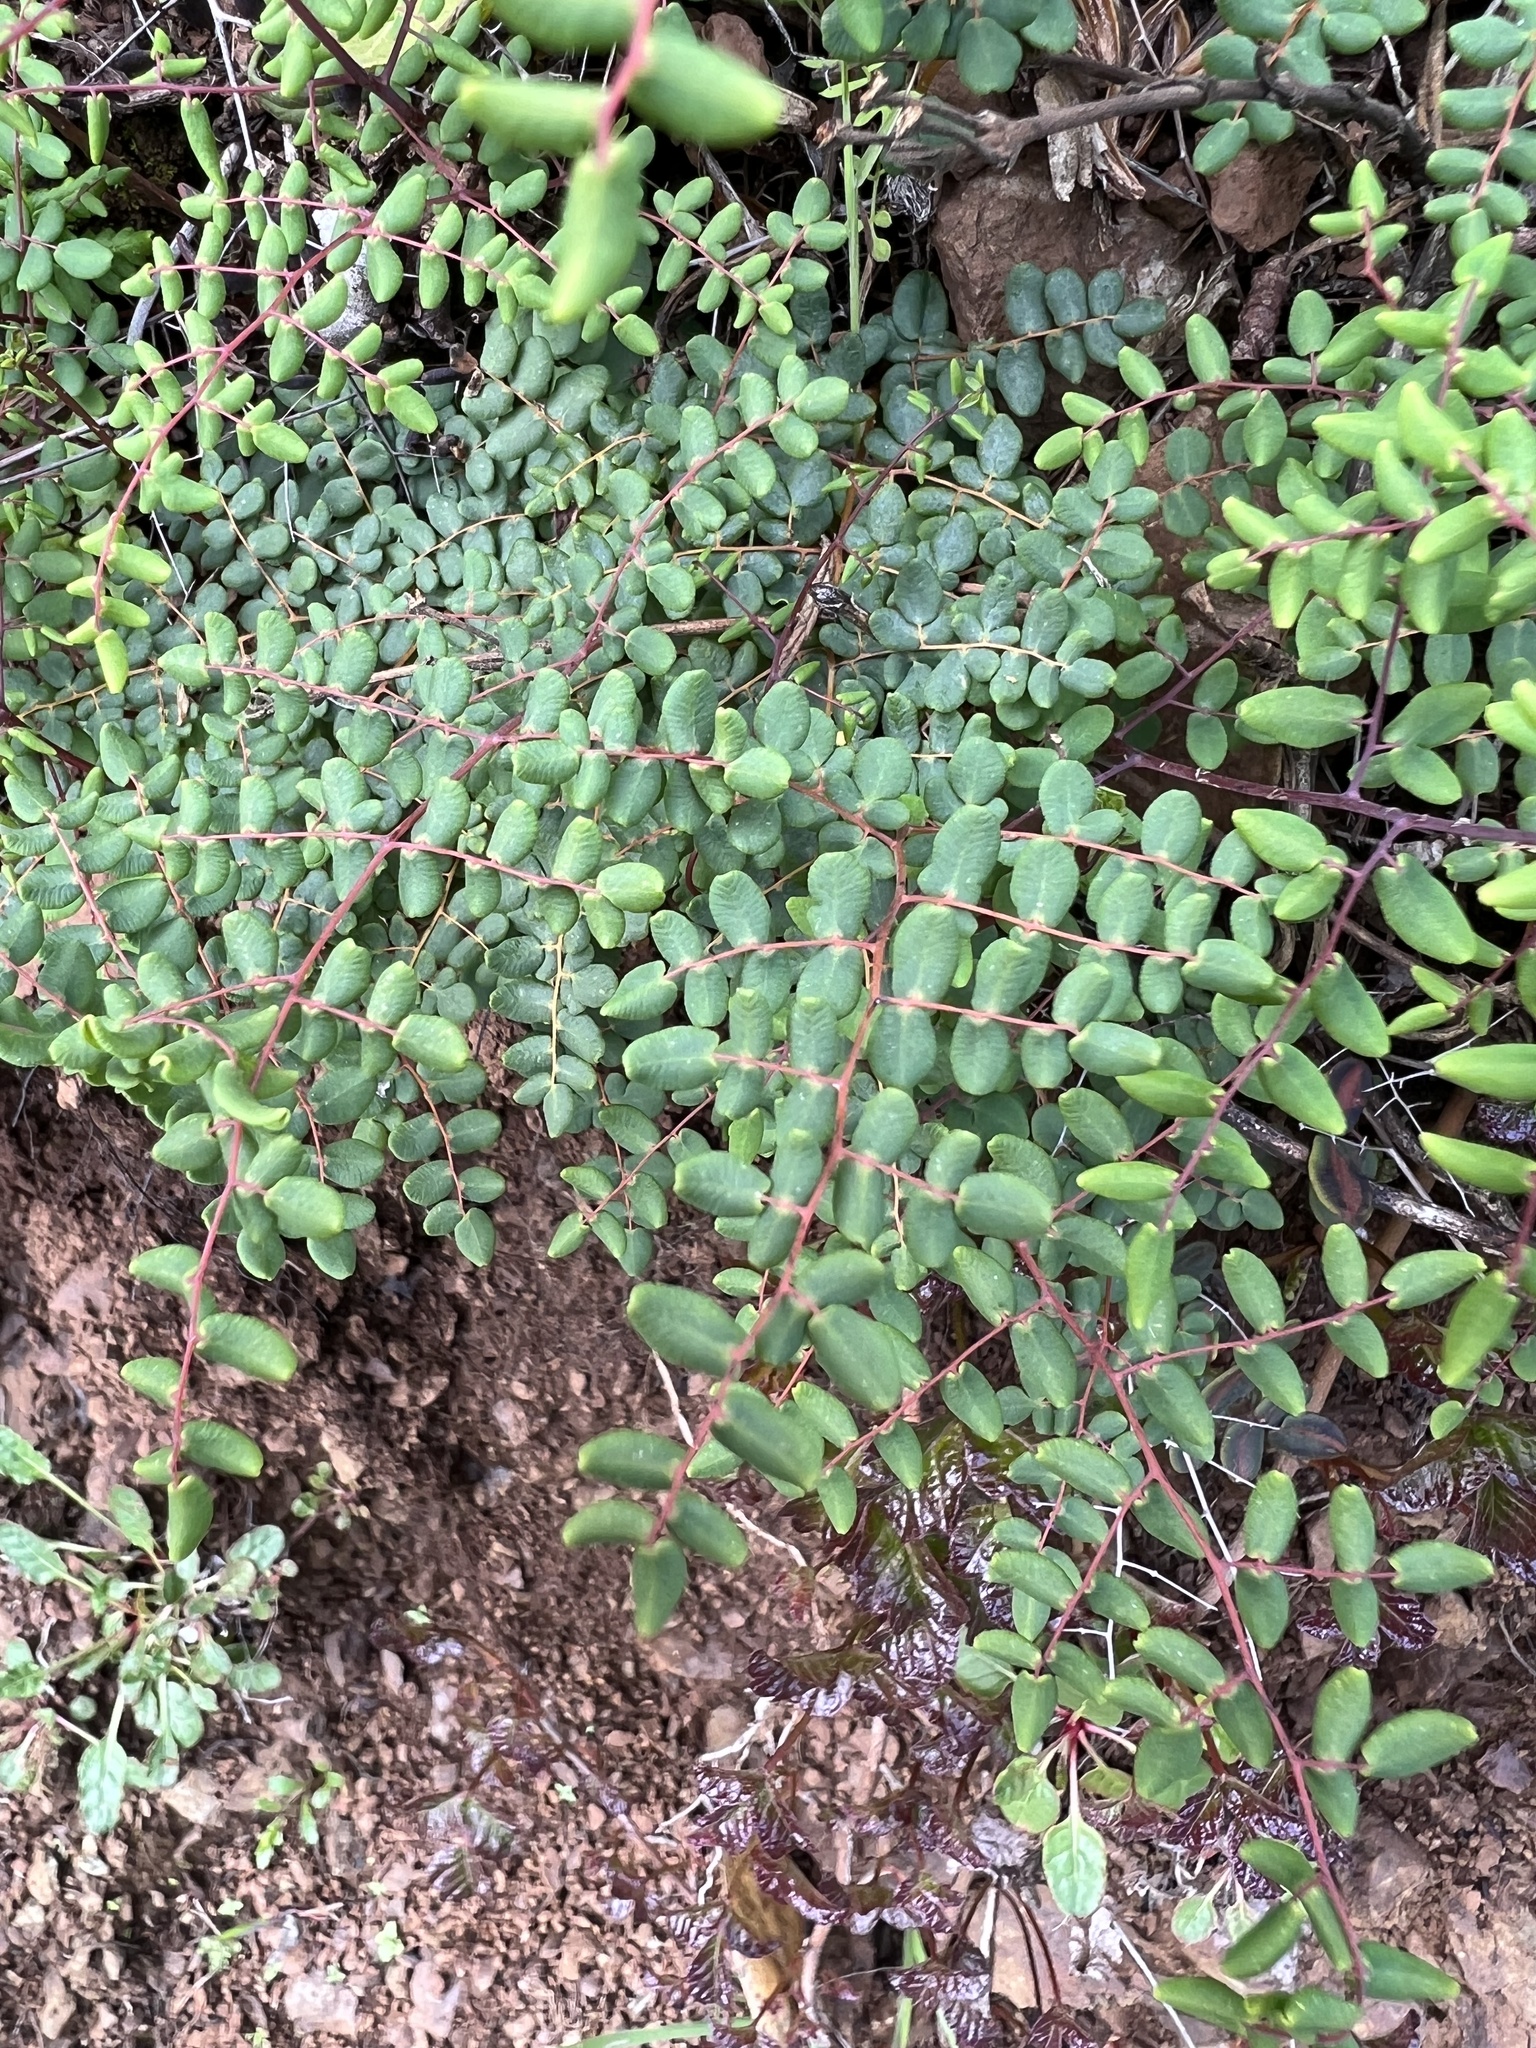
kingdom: Plantae
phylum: Tracheophyta
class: Polypodiopsida
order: Polypodiales
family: Pteridaceae
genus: Pellaea
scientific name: Pellaea andromedifolia
